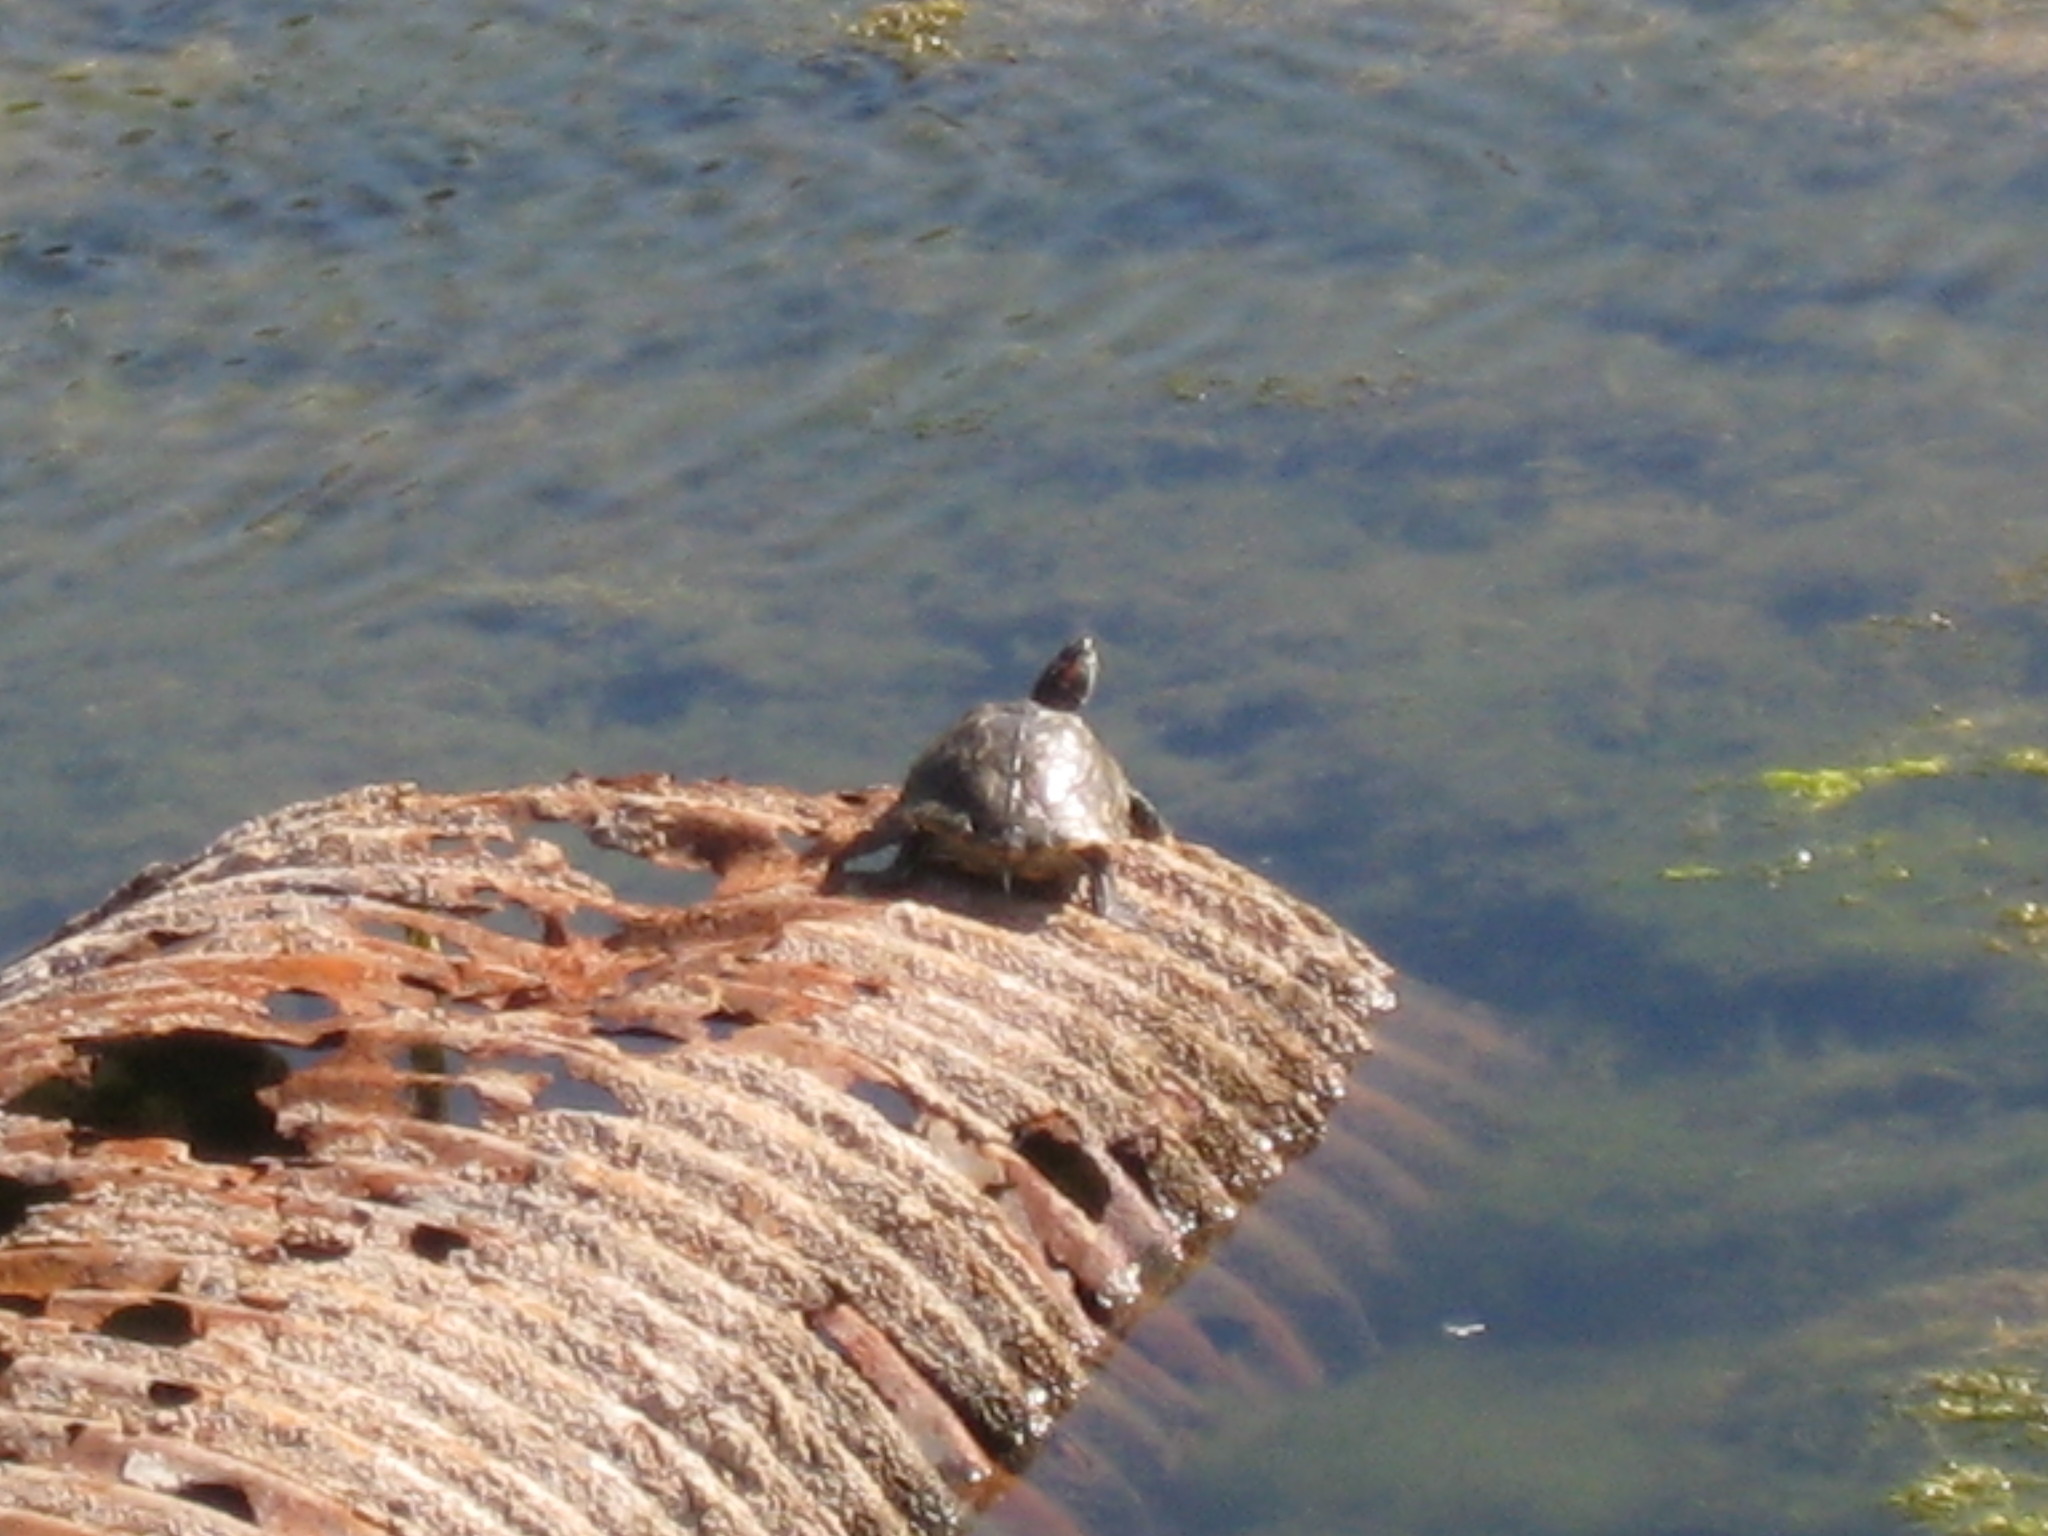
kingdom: Animalia
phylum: Chordata
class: Testudines
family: Emydidae
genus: Trachemys
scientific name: Trachemys scripta
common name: Slider
